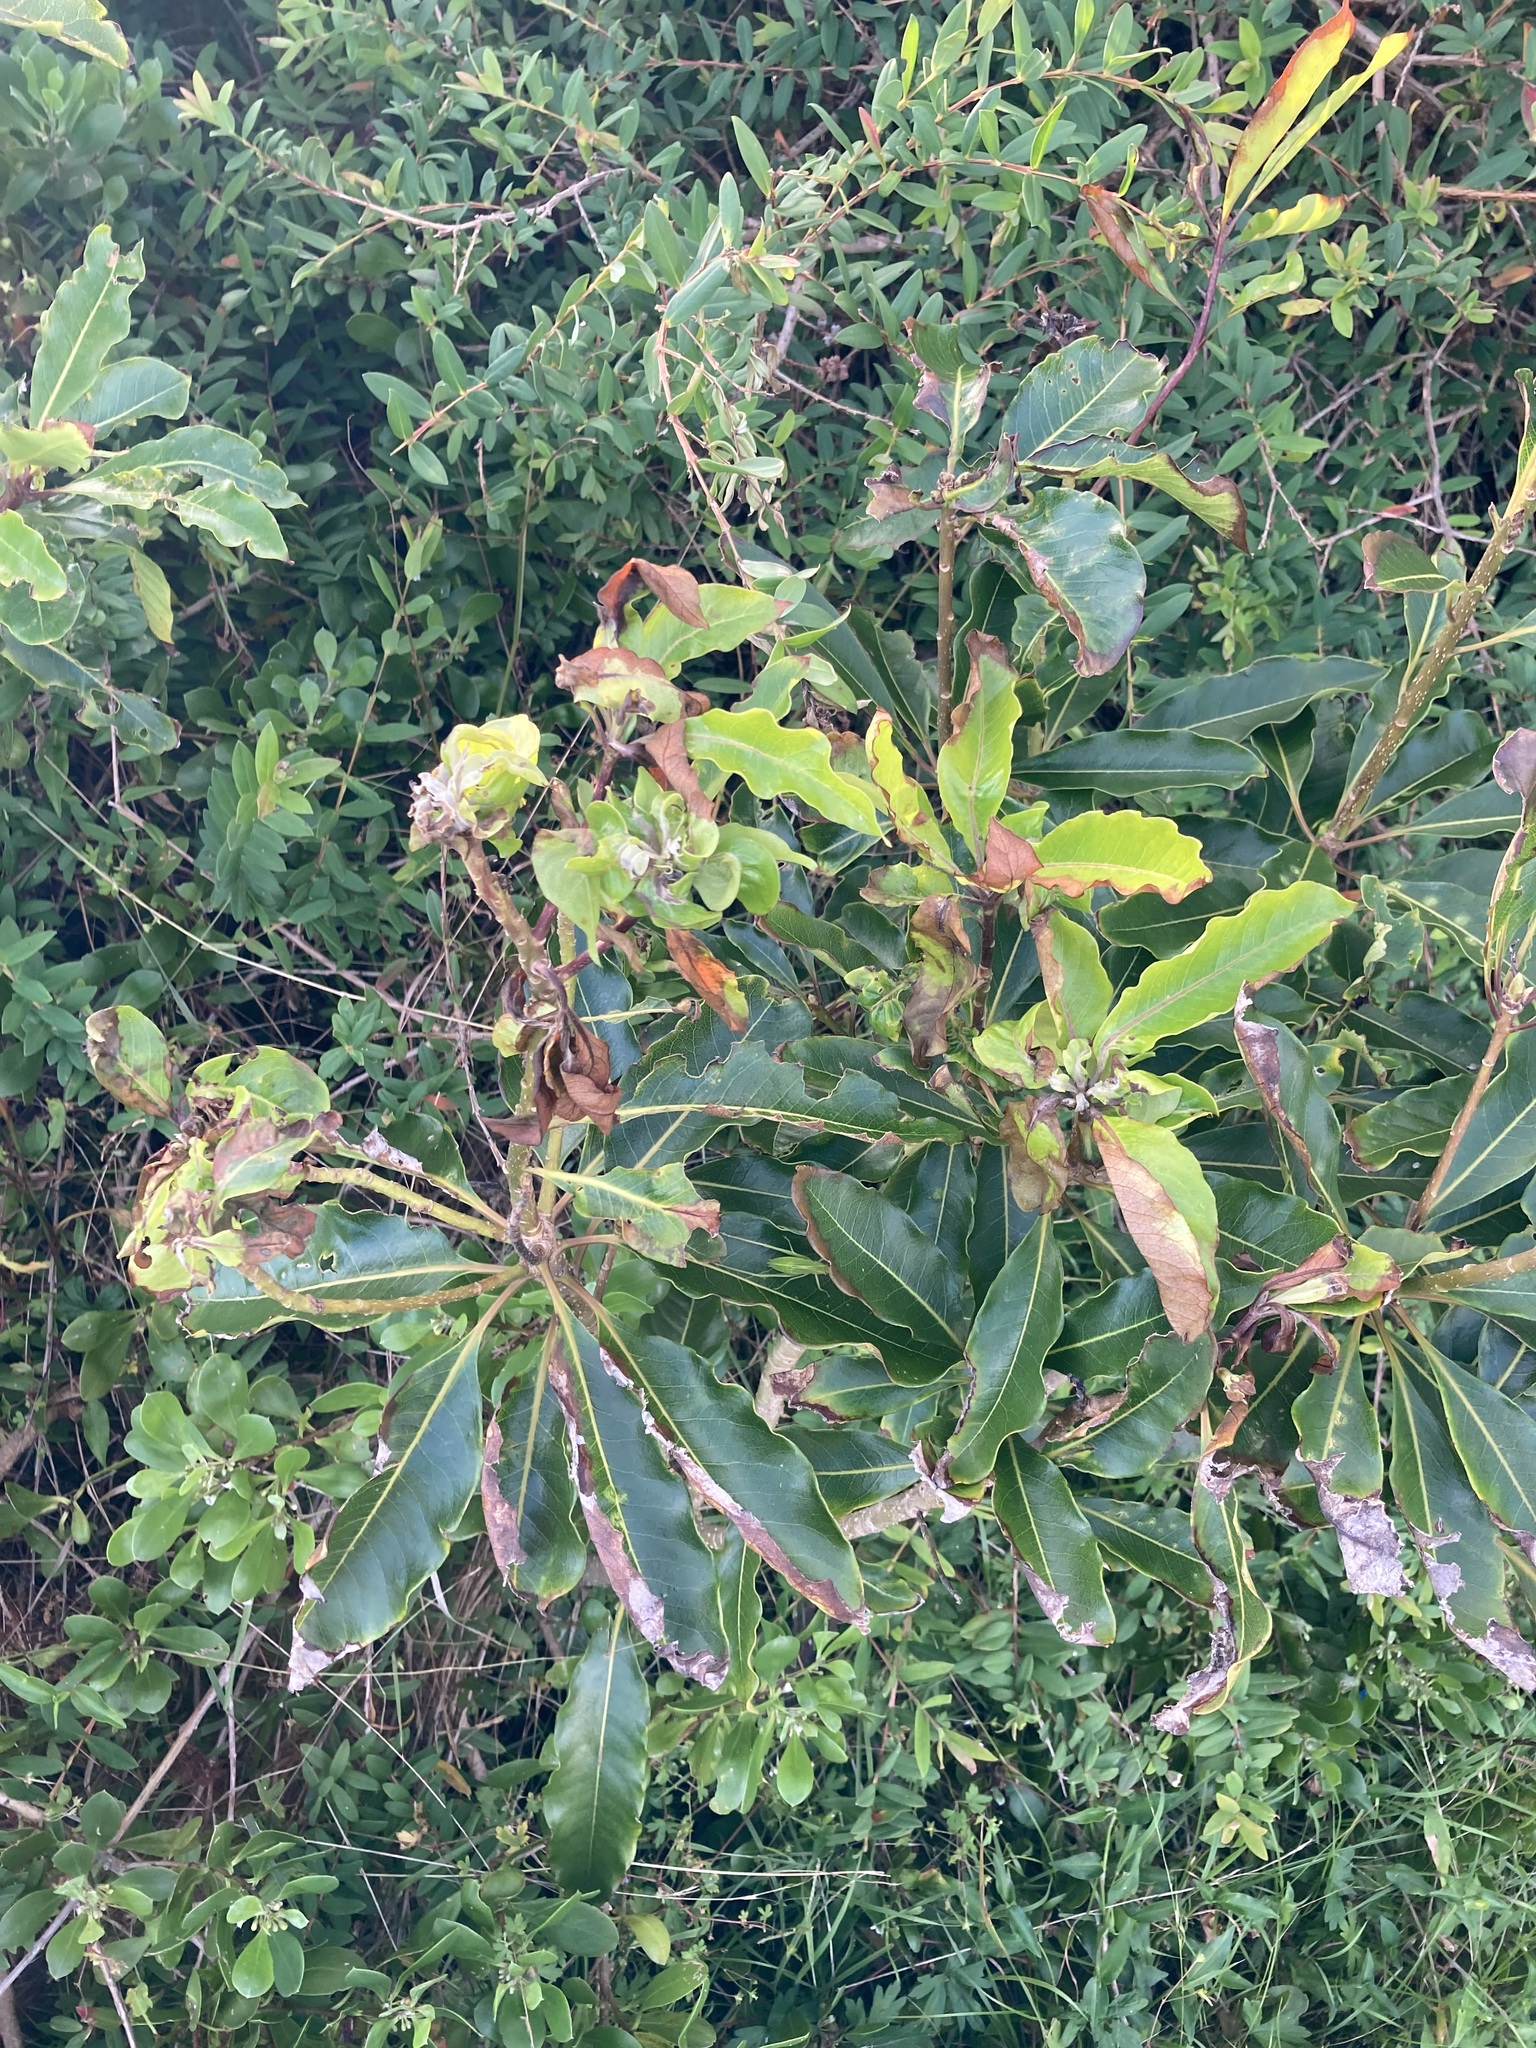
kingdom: Plantae
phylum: Tracheophyta
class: Magnoliopsida
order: Apiales
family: Pittosporaceae
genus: Pittosporum
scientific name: Pittosporum undulatum
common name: Australian cheesewood
